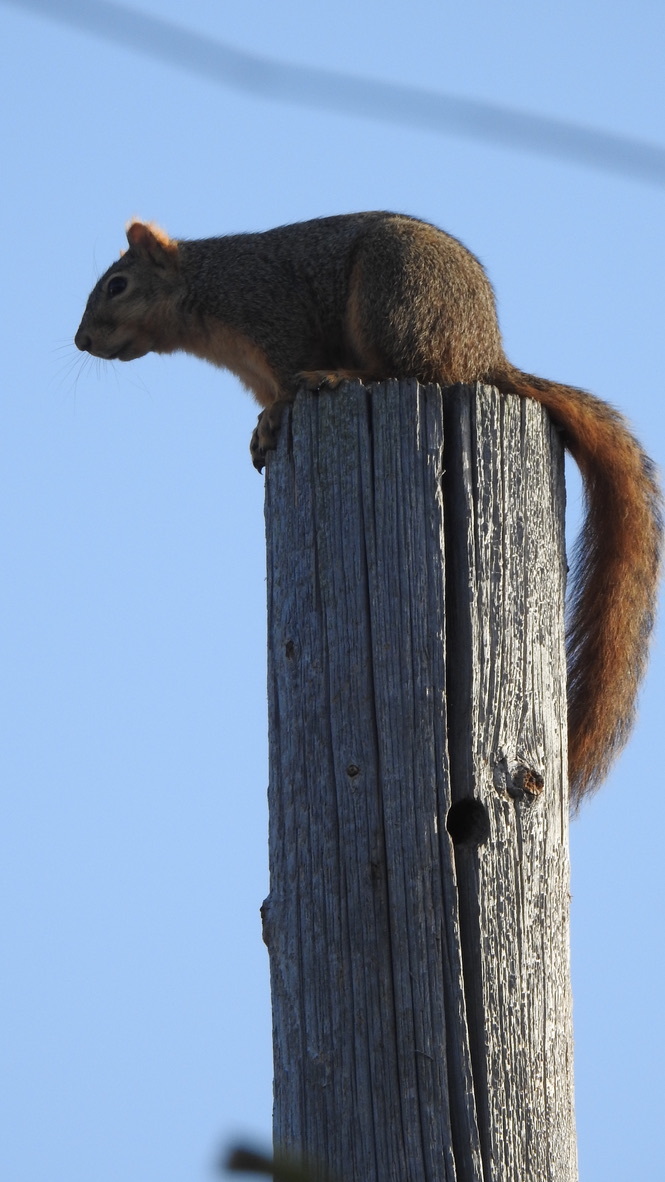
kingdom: Animalia
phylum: Chordata
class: Mammalia
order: Rodentia
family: Sciuridae
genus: Sciurus
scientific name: Sciurus niger
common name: Fox squirrel
